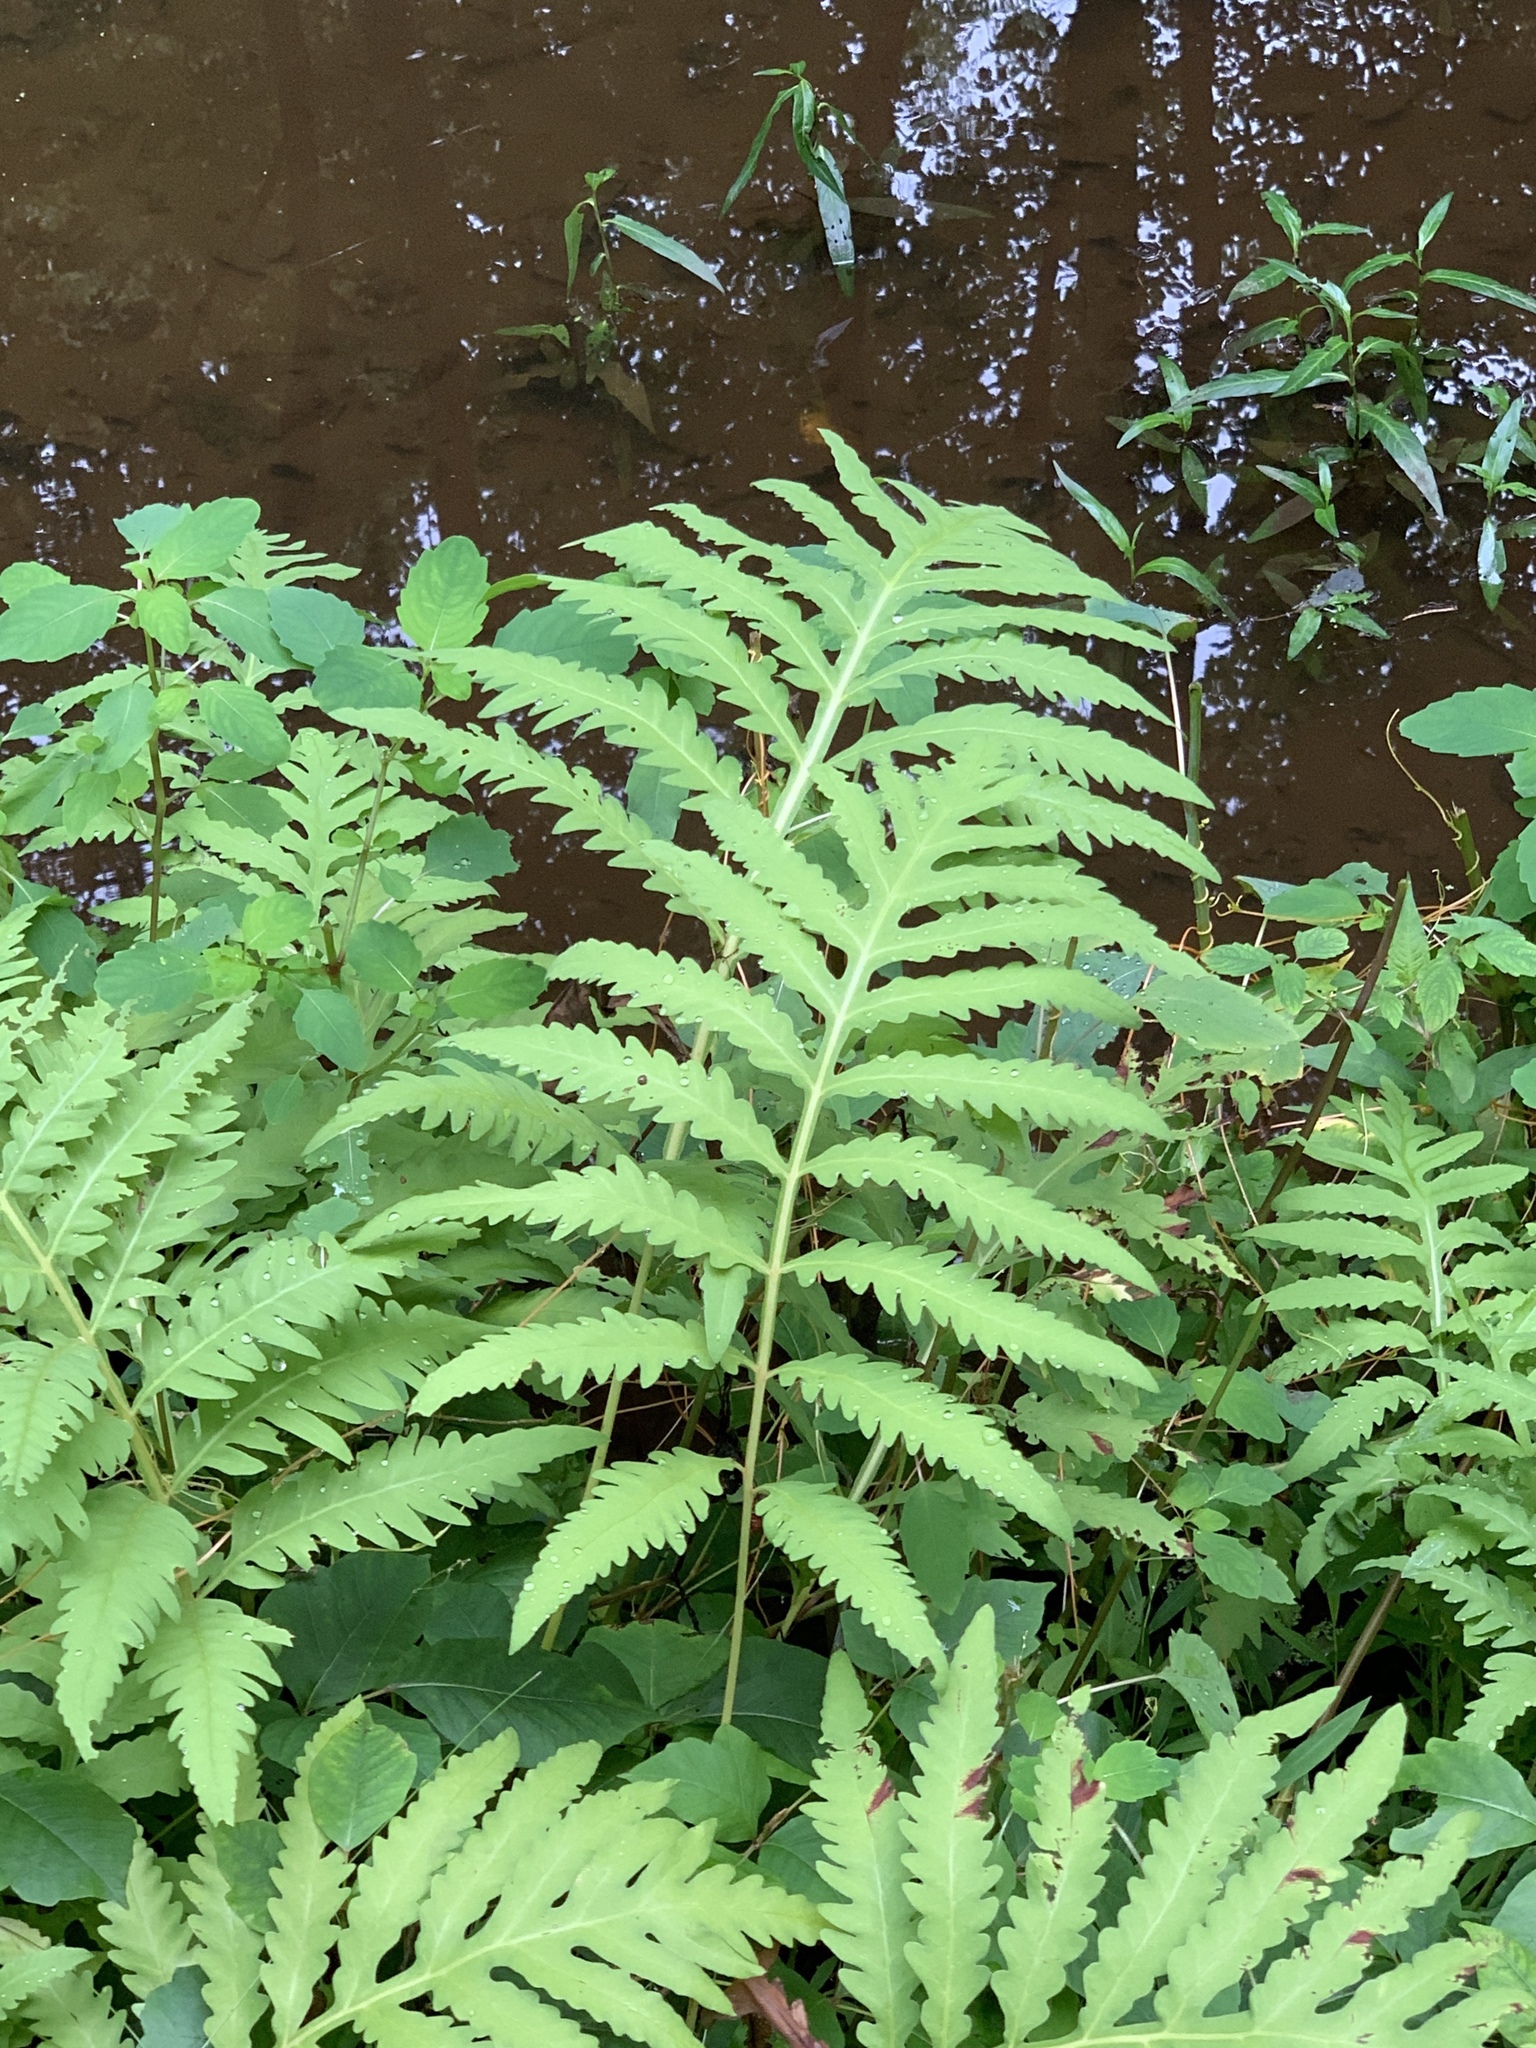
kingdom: Plantae
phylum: Tracheophyta
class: Polypodiopsida
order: Polypodiales
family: Onocleaceae
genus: Onoclea
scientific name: Onoclea sensibilis
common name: Sensitive fern
